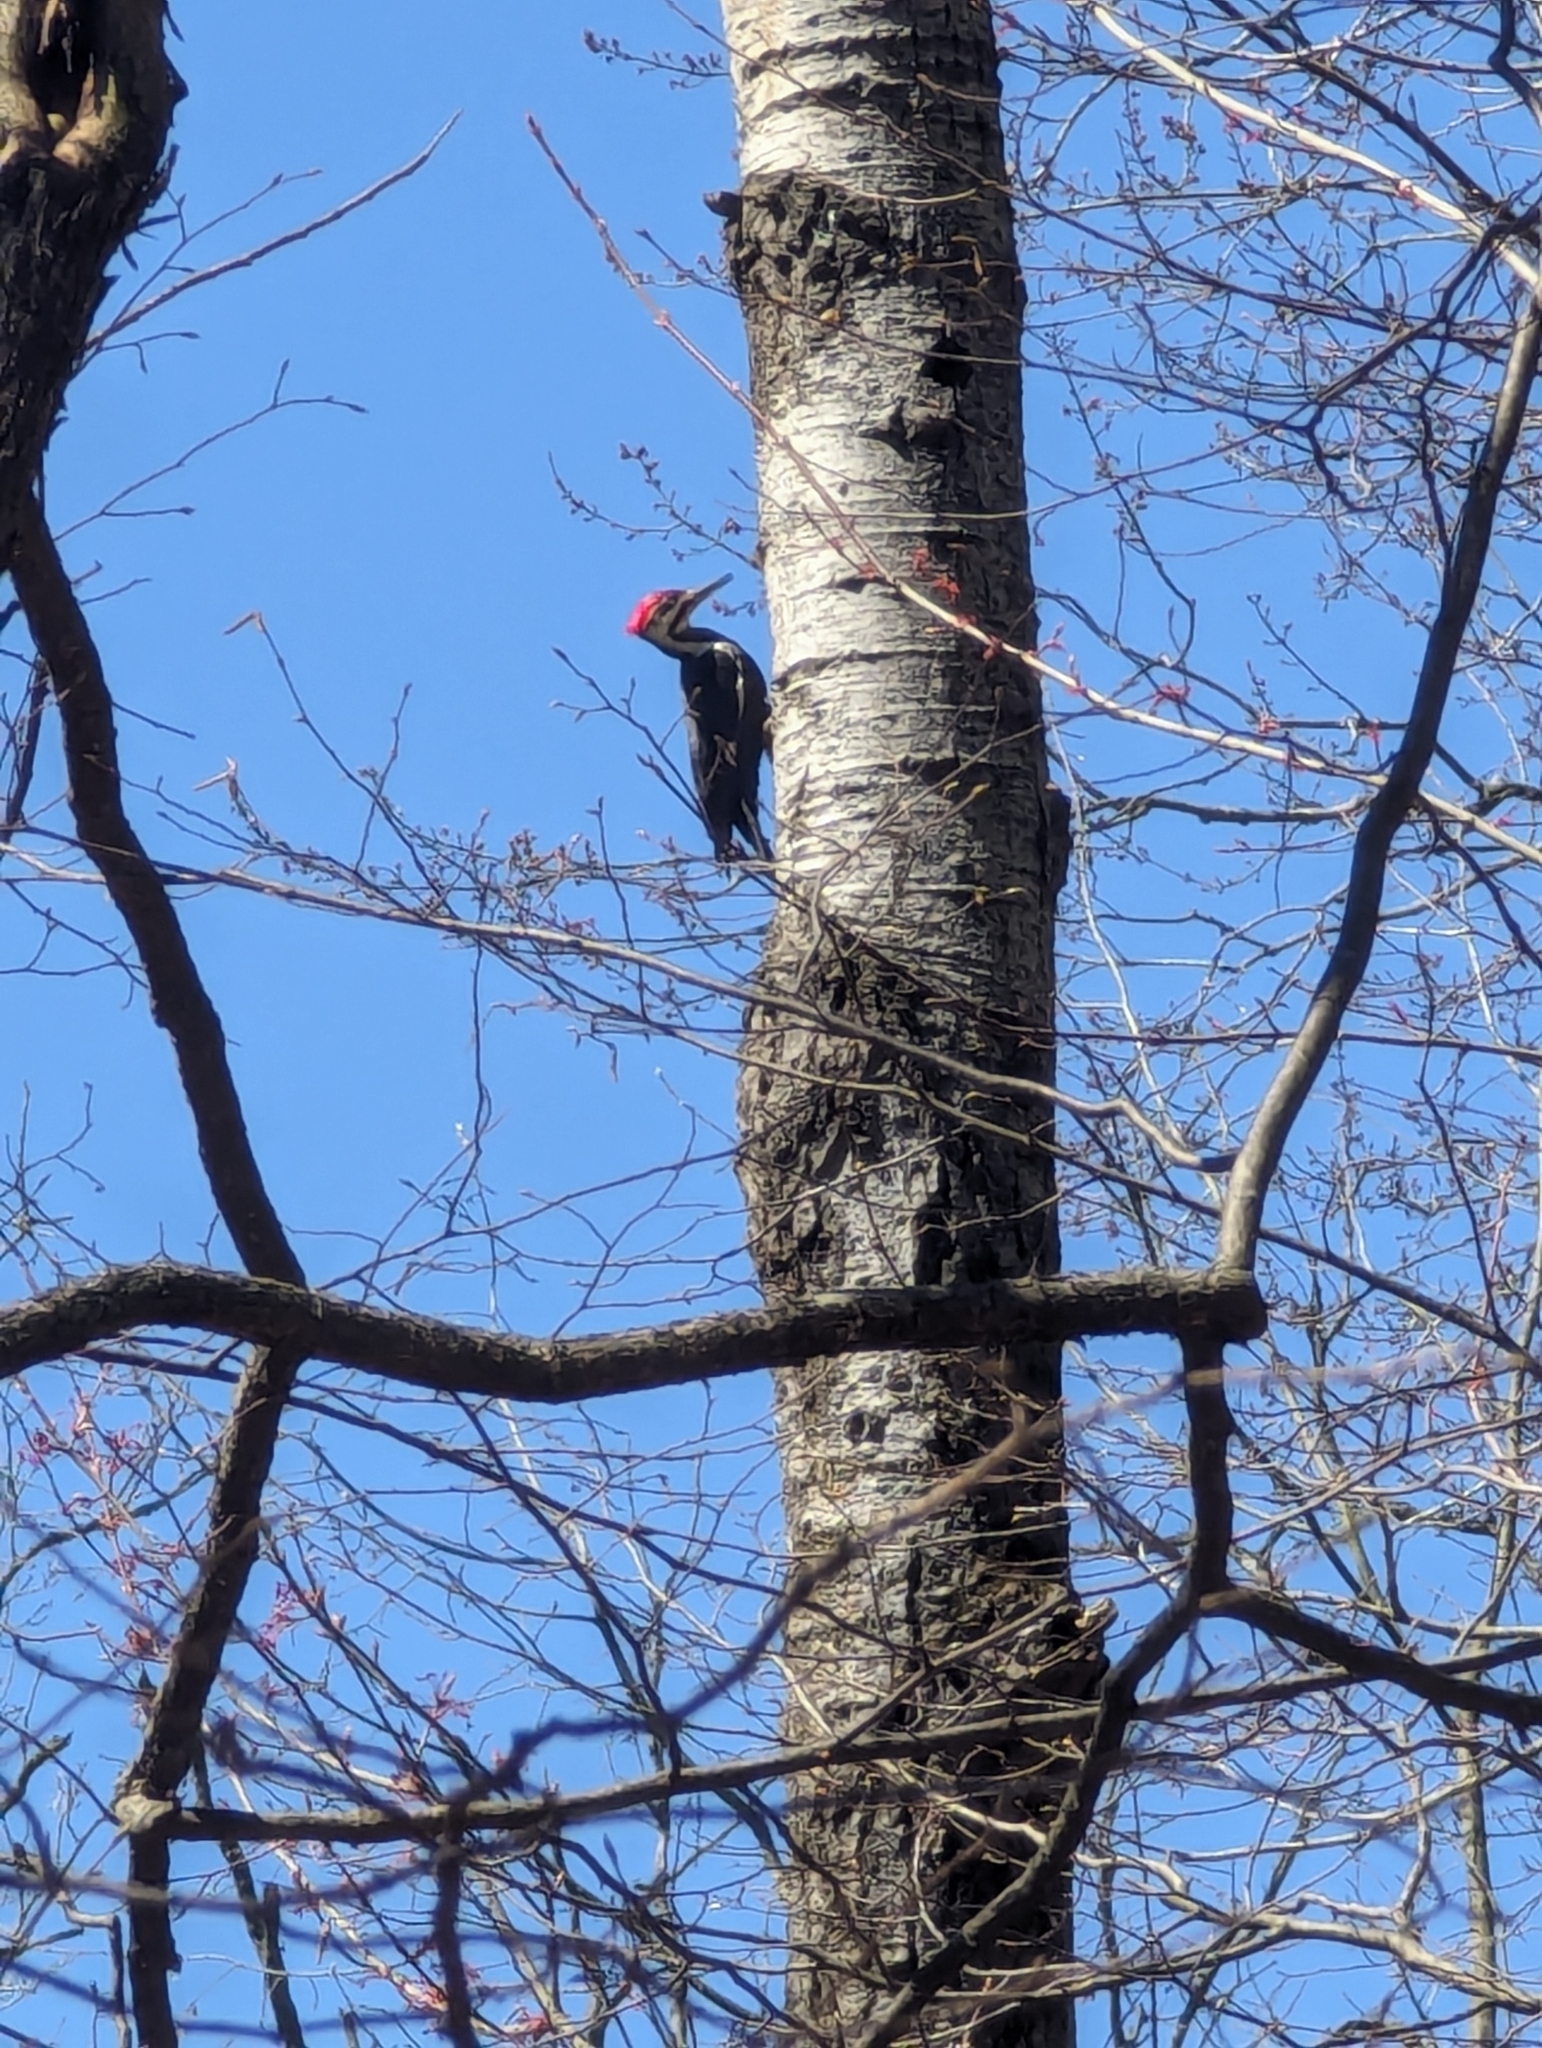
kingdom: Animalia
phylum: Chordata
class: Aves
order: Piciformes
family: Picidae
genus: Dryocopus
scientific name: Dryocopus pileatus
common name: Pileated woodpecker
